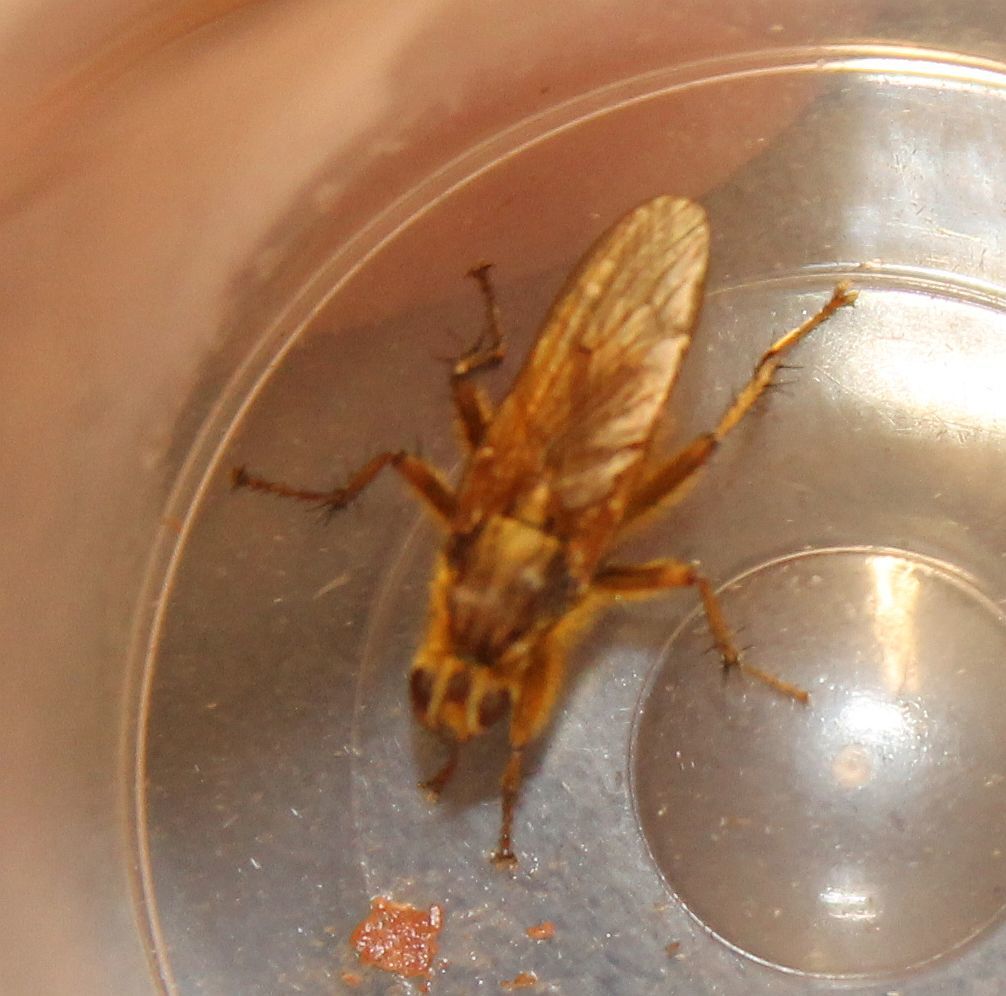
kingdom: Animalia
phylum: Arthropoda
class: Insecta
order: Diptera
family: Scathophagidae
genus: Scathophaga
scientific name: Scathophaga stercoraria
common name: Yellow dung fly
